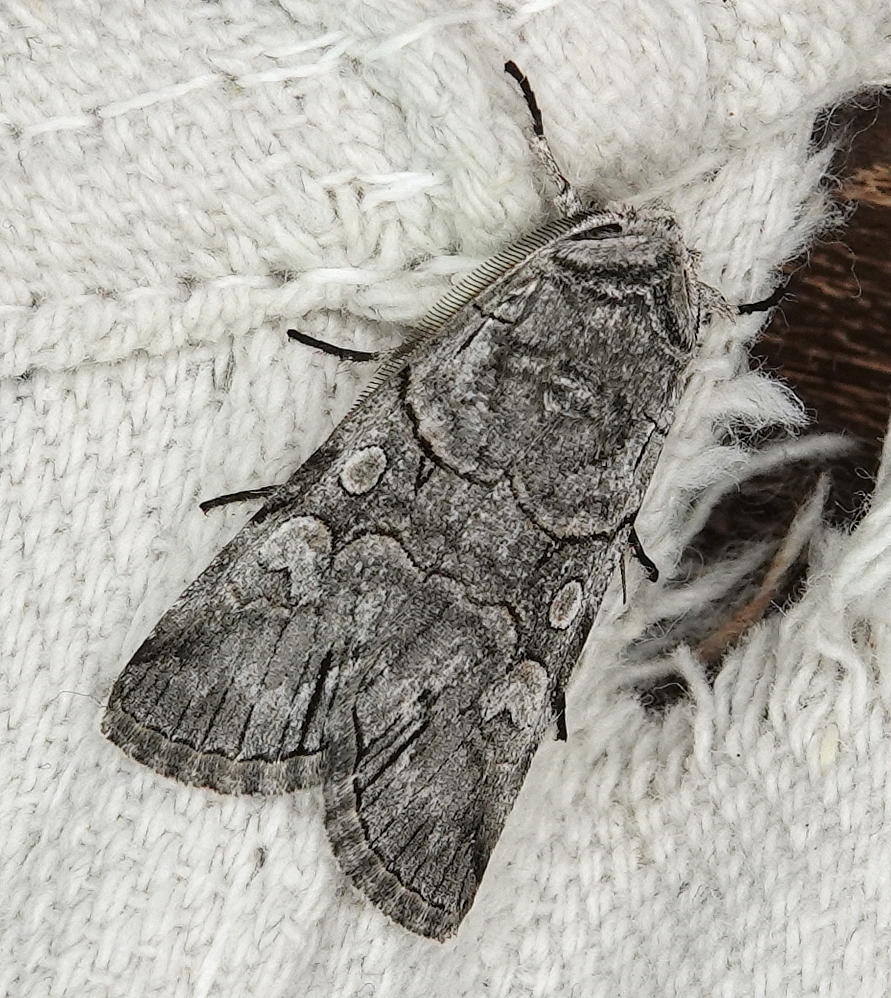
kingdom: Animalia
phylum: Arthropoda
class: Insecta
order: Lepidoptera
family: Noctuidae
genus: Sympistis
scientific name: Sympistis chionanthi
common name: Fringe-tree sallow
